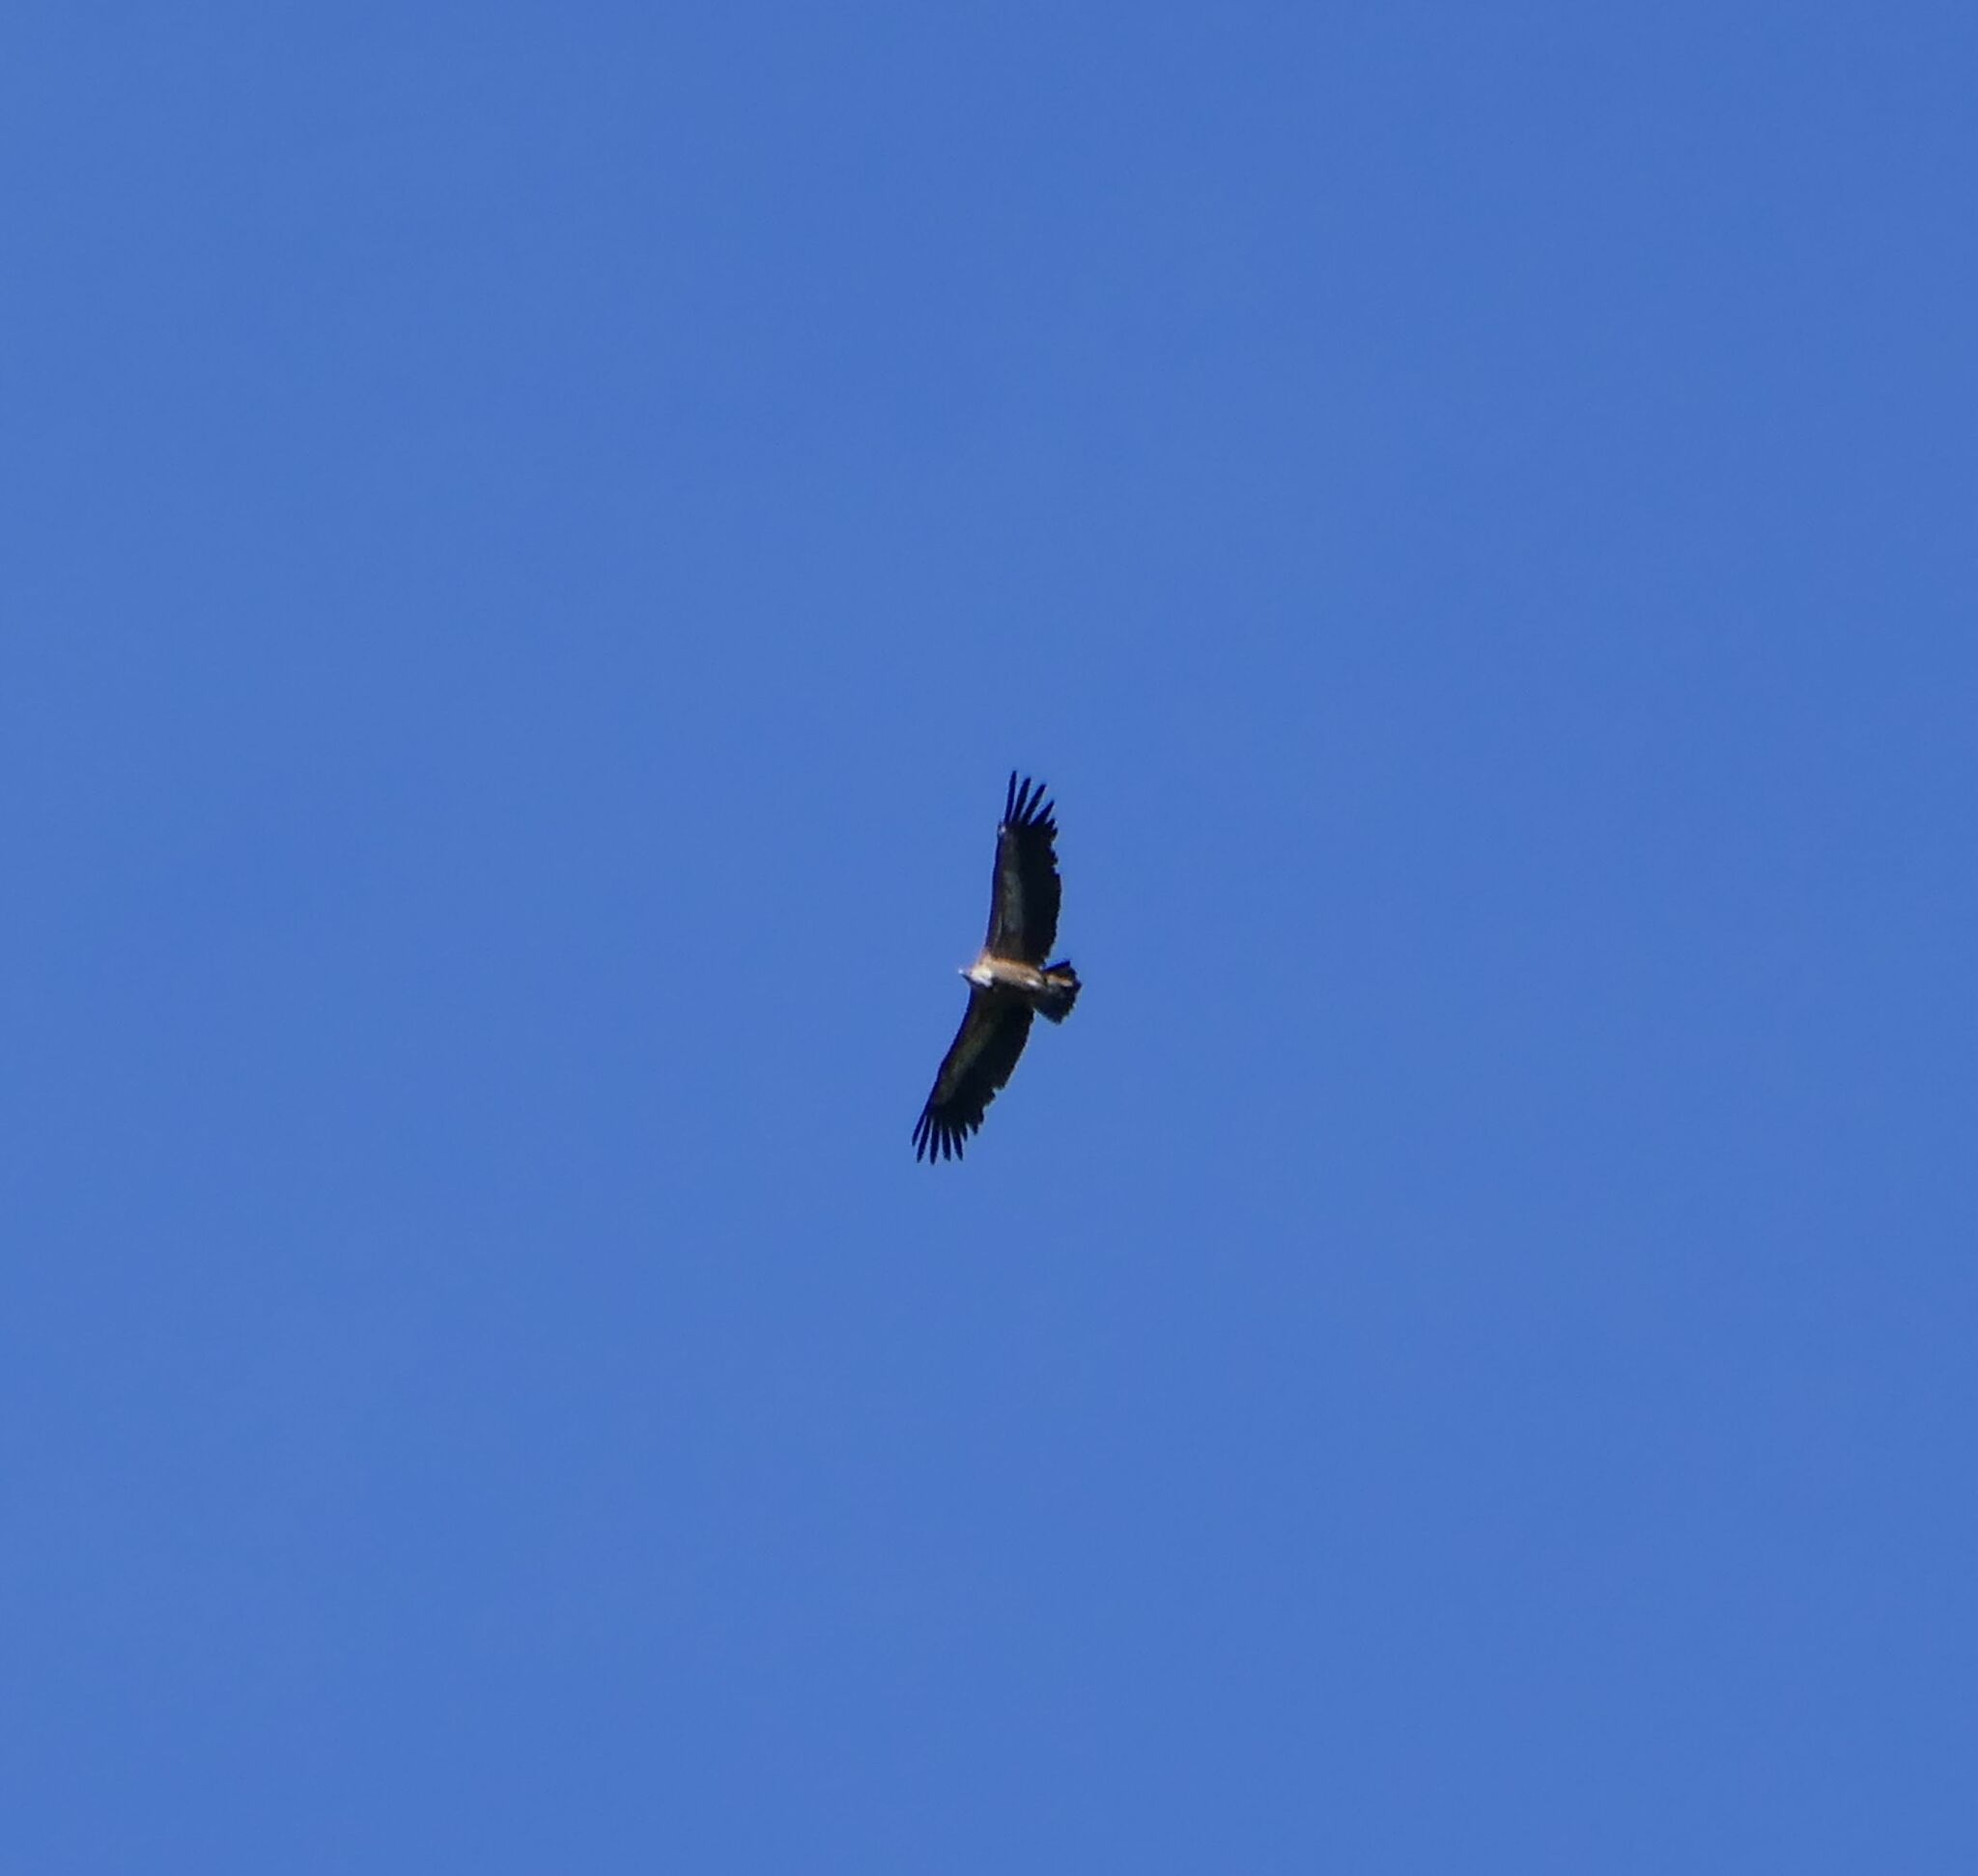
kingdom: Animalia
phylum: Chordata
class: Aves
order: Accipitriformes
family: Accipitridae
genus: Gyps
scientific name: Gyps fulvus
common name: Griffon vulture
